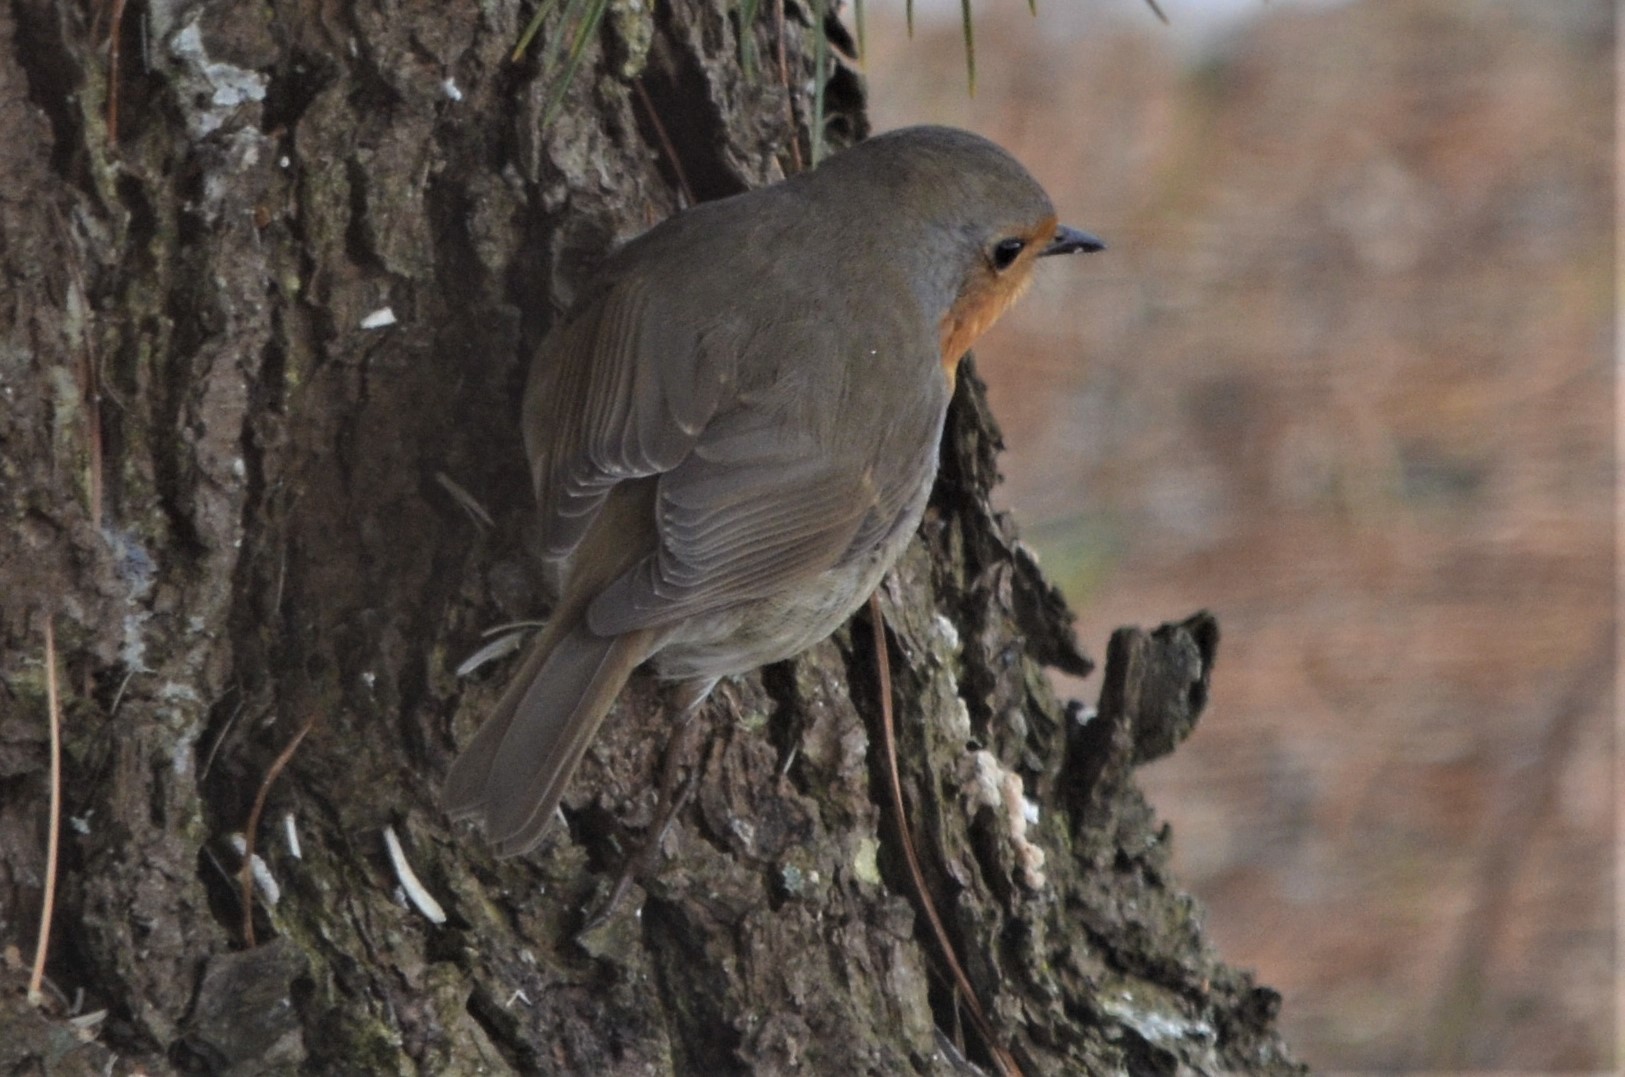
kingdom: Animalia
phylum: Chordata
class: Aves
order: Passeriformes
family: Muscicapidae
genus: Erithacus
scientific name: Erithacus rubecula
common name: European robin
